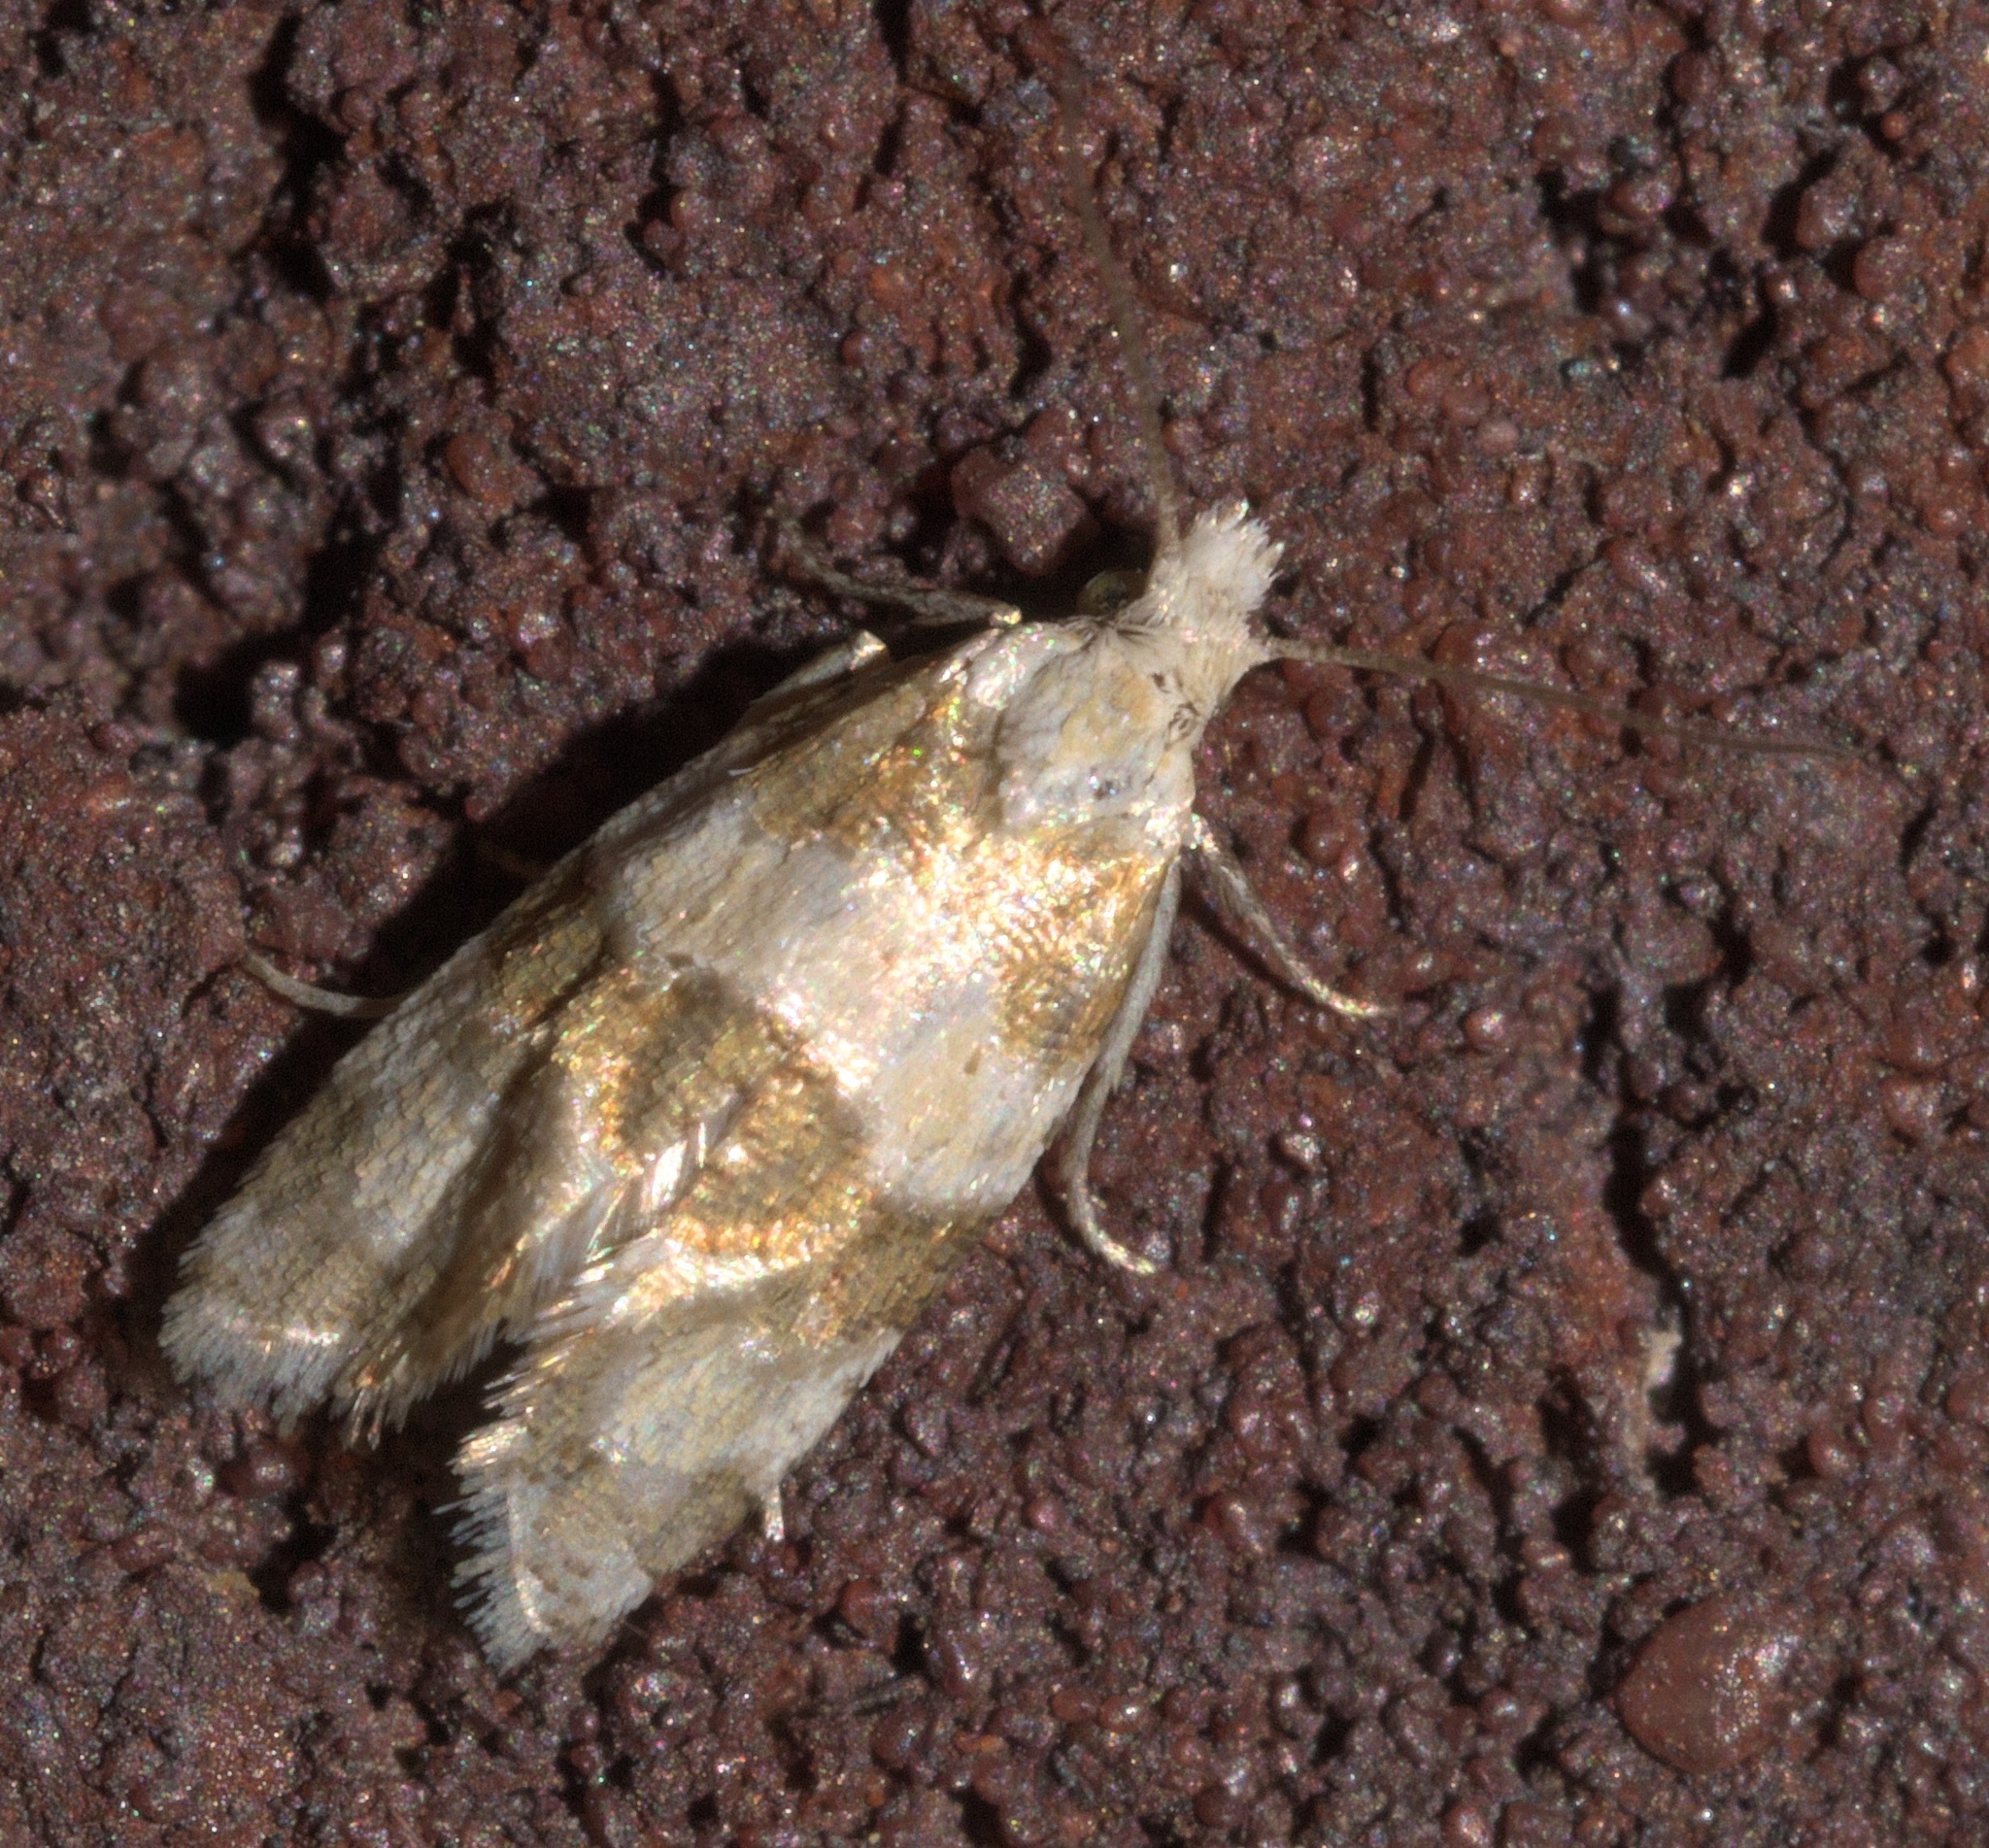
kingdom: Animalia
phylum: Arthropoda
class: Insecta
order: Lepidoptera
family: Tortricidae
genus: Aethes
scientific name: Aethes argentilimitana
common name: Silver-bordered aethes
